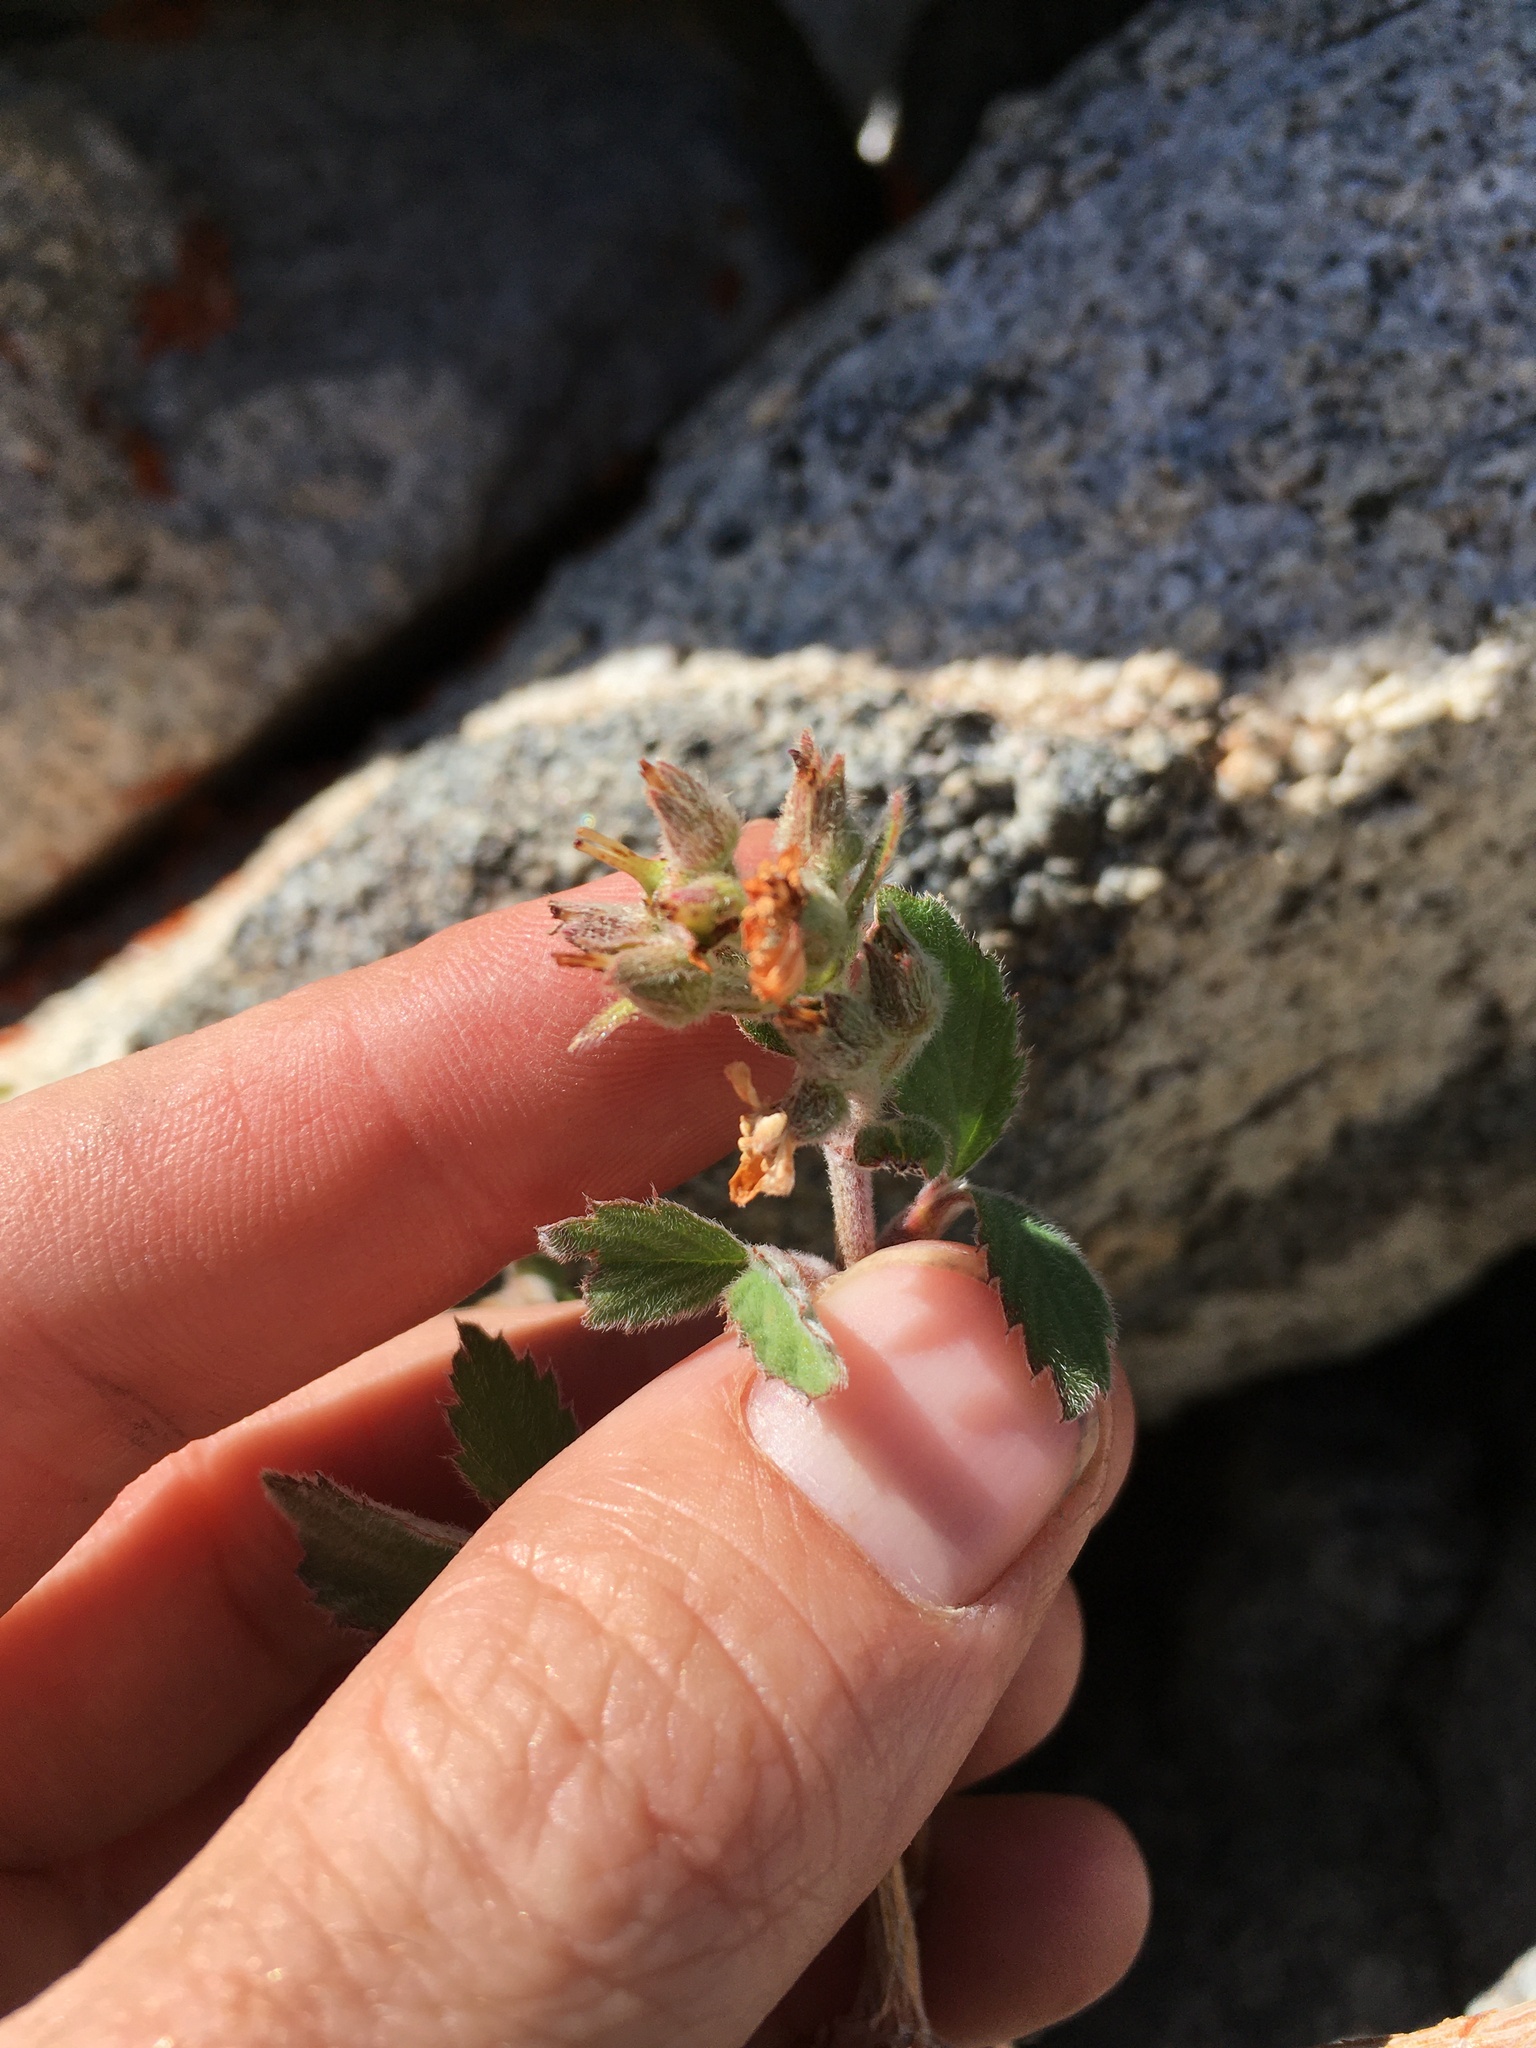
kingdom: Plantae
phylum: Tracheophyta
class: Magnoliopsida
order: Cornales
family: Hydrangeaceae
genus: Jamesia
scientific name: Jamesia americana
